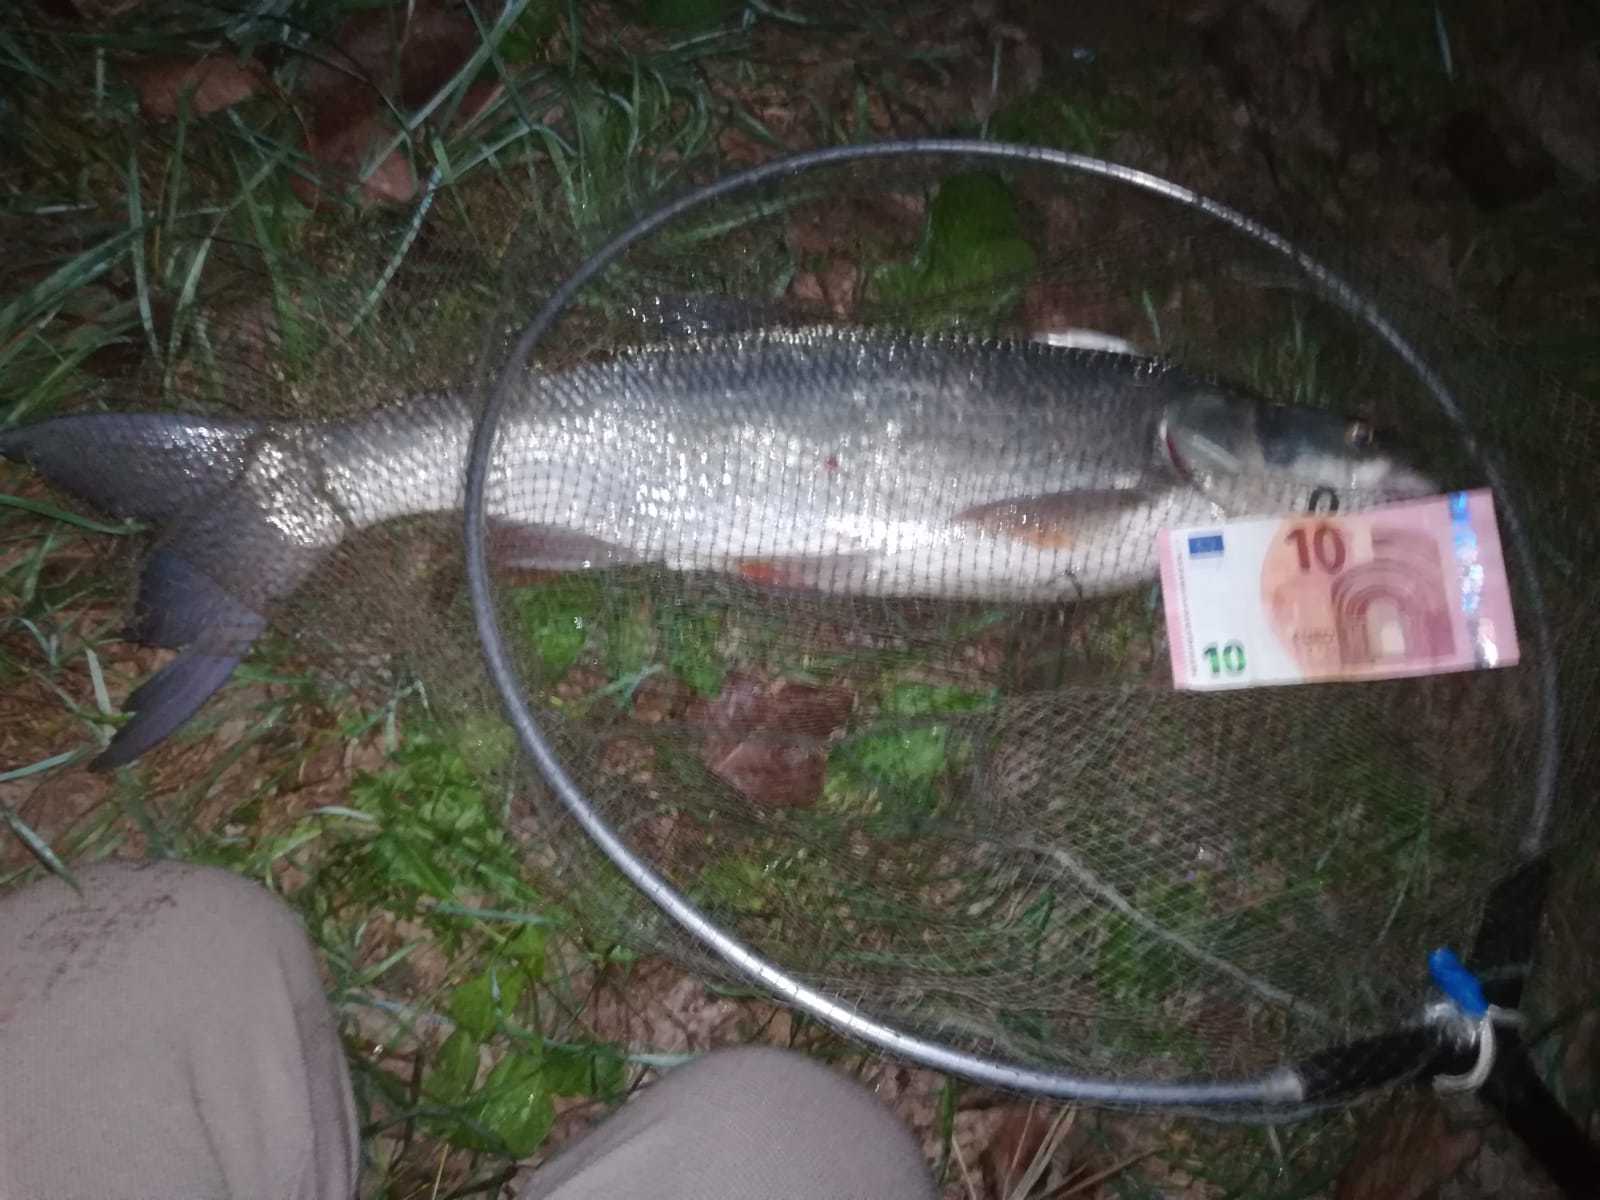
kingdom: Animalia
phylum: Chordata
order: Cypriniformes
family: Cyprinidae
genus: Leuciscus
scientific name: Leuciscus aspius
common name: Asp
